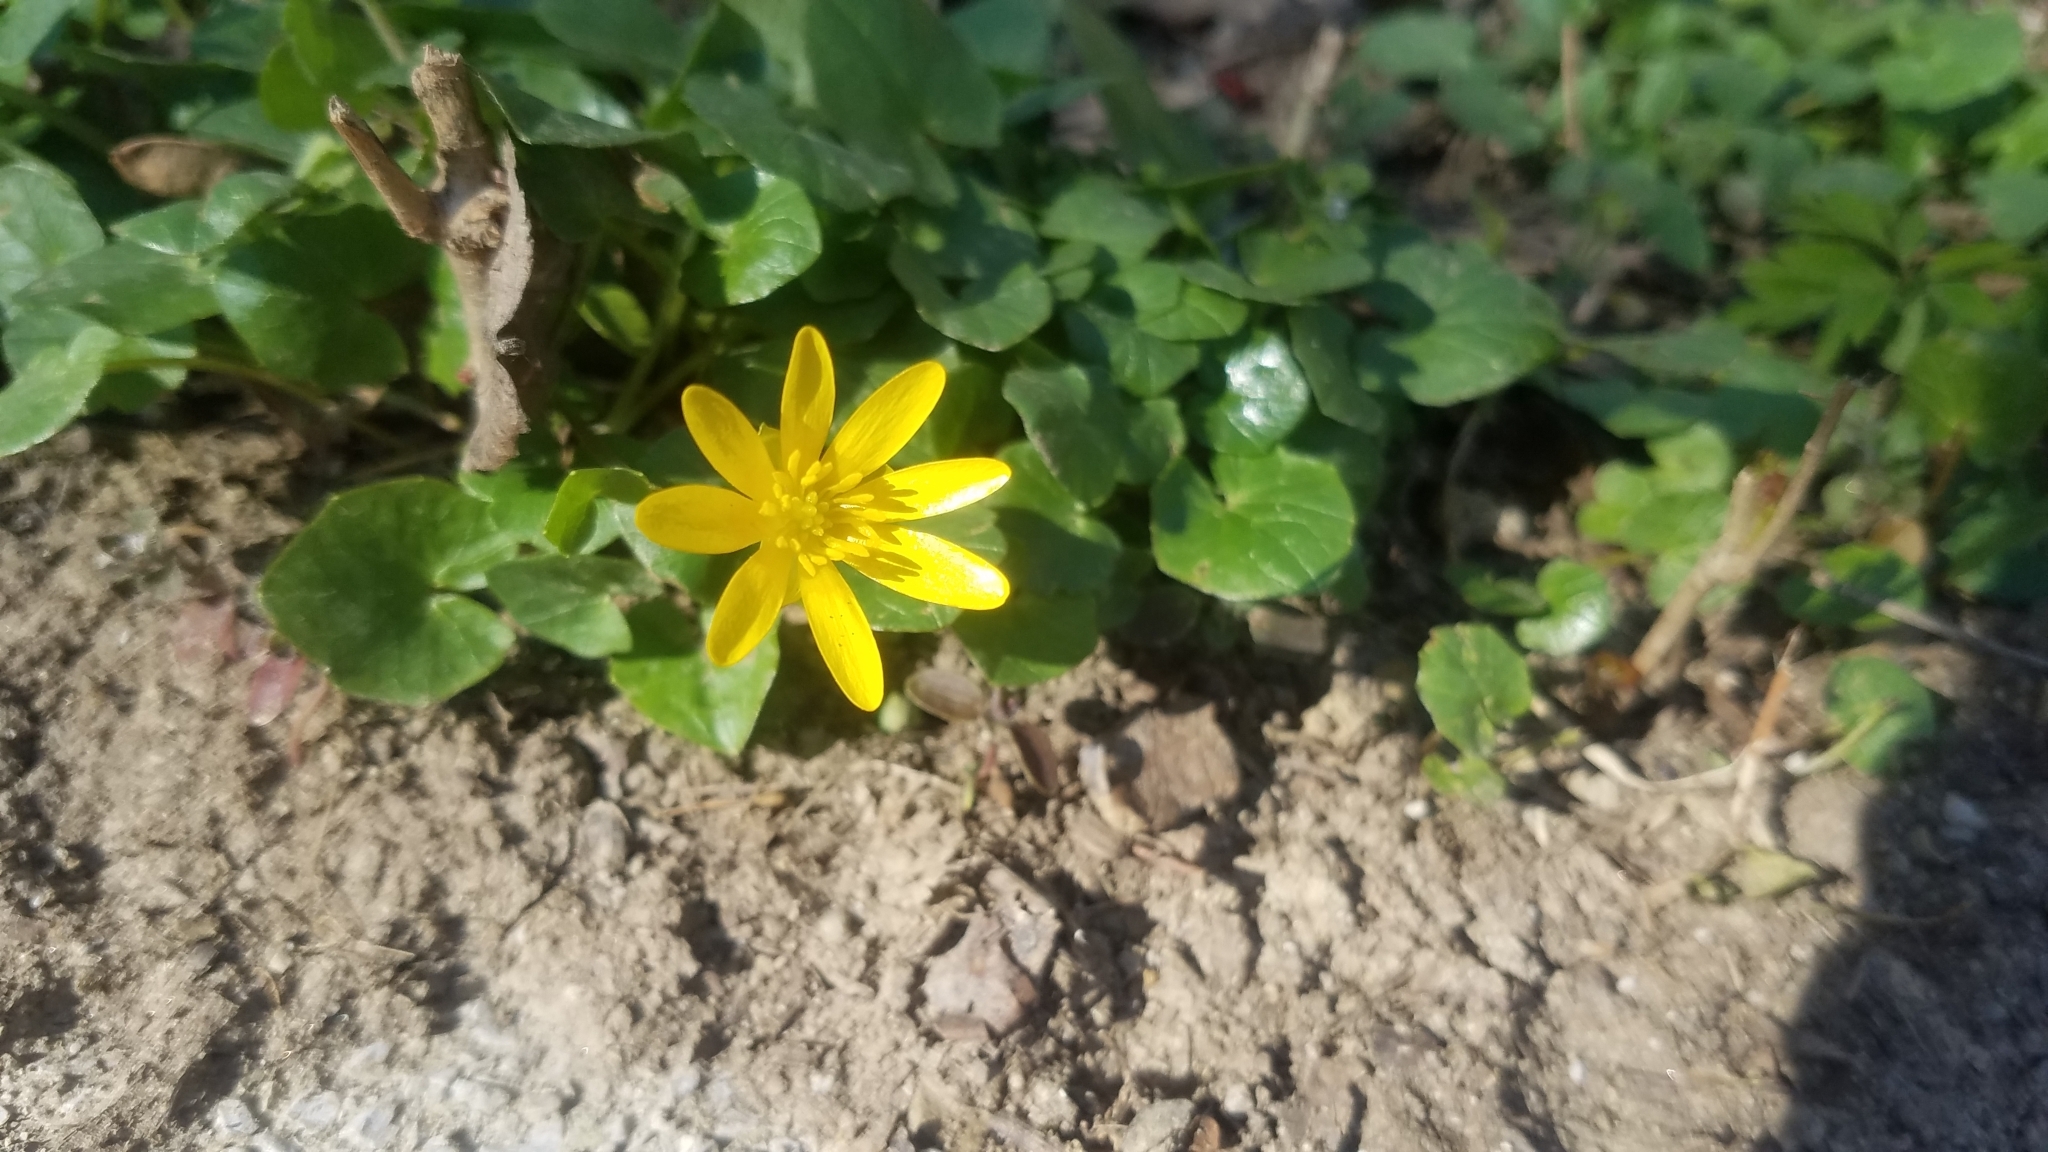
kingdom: Plantae
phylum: Tracheophyta
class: Magnoliopsida
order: Ranunculales
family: Ranunculaceae
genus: Ficaria
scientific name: Ficaria verna
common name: Lesser celandine
